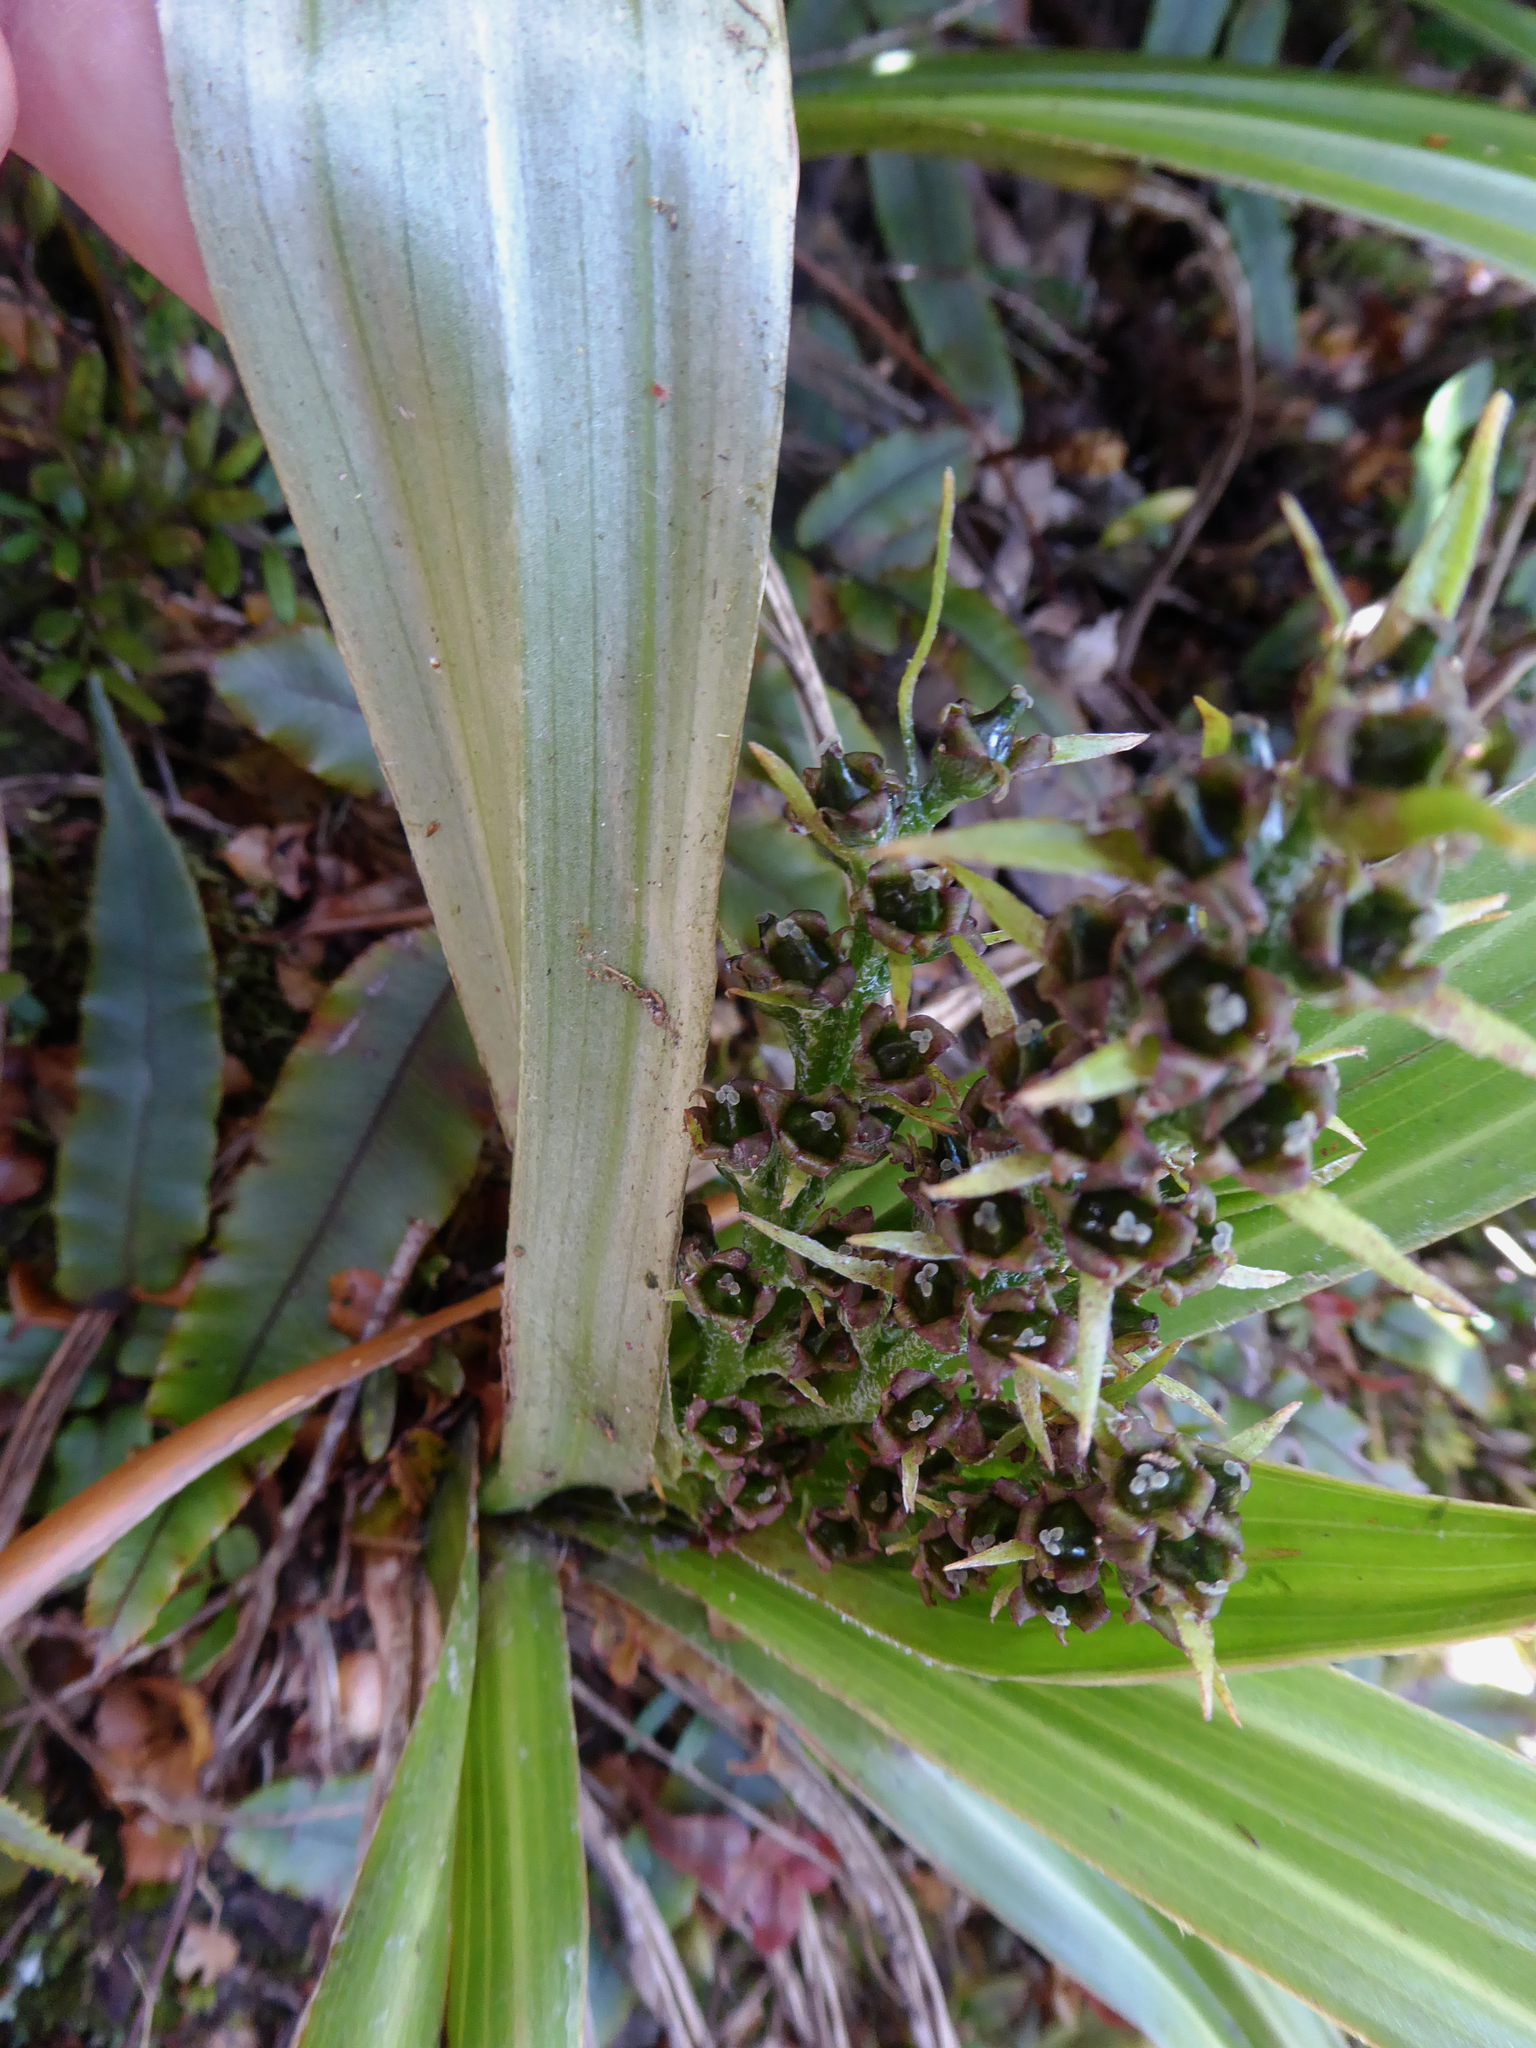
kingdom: Plantae
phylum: Tracheophyta
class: Liliopsida
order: Asparagales
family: Asteliaceae
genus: Astelia
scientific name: Astelia nervosa
